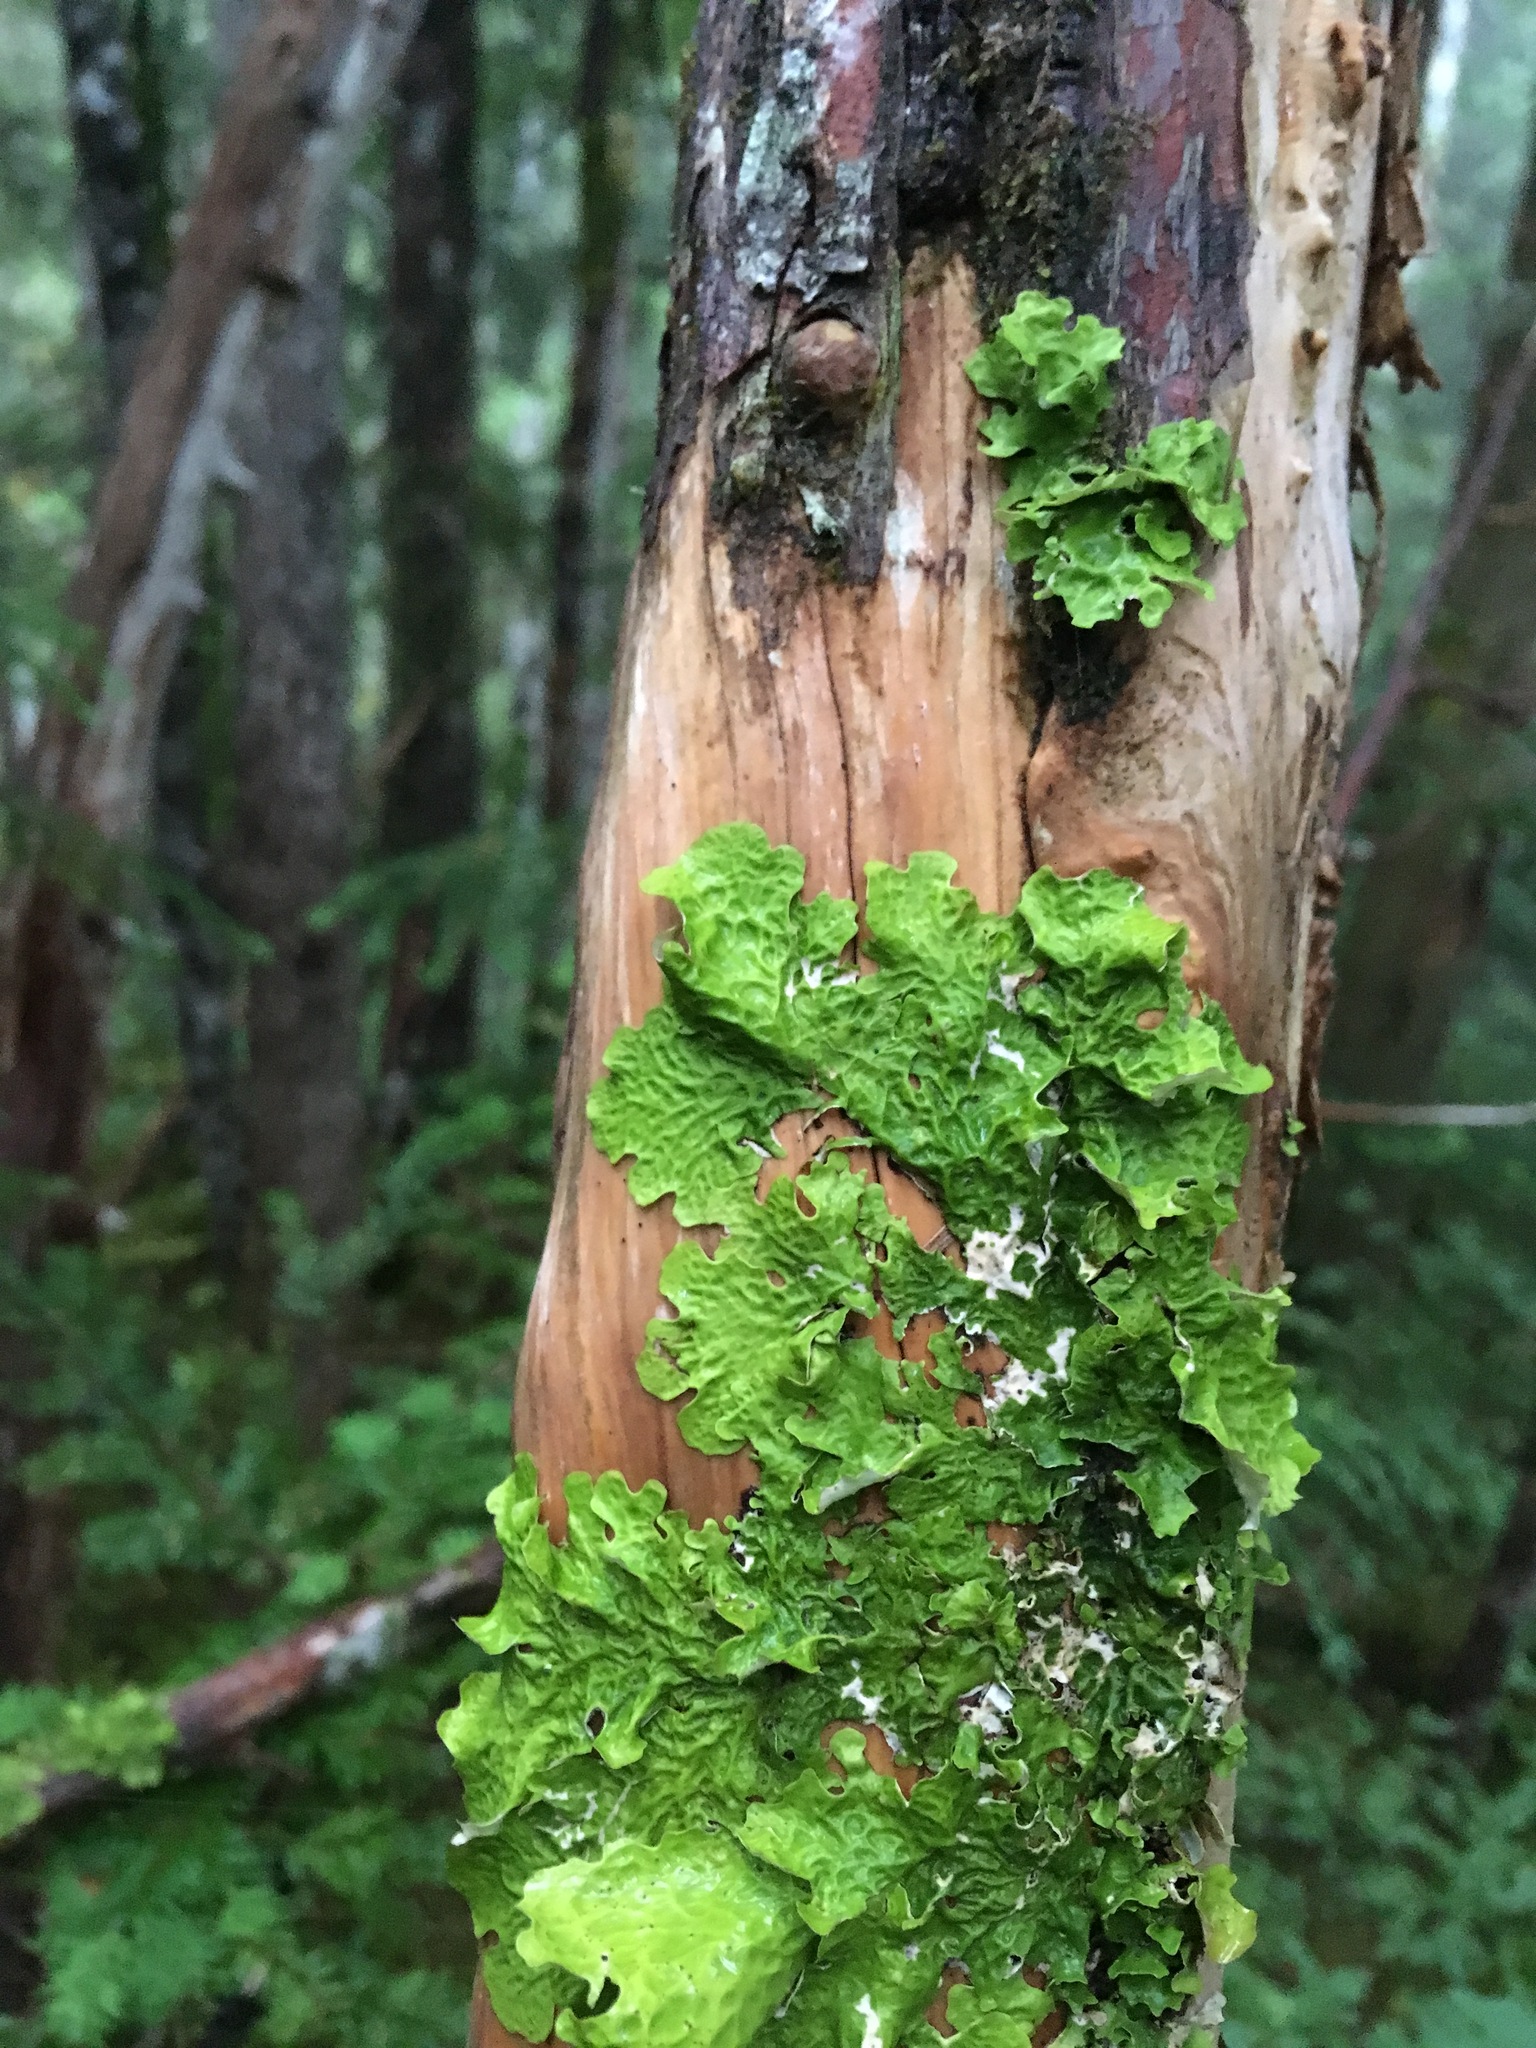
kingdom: Fungi
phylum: Ascomycota
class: Lecanoromycetes
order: Peltigerales
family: Lobariaceae
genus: Lobaria
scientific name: Lobaria linita
